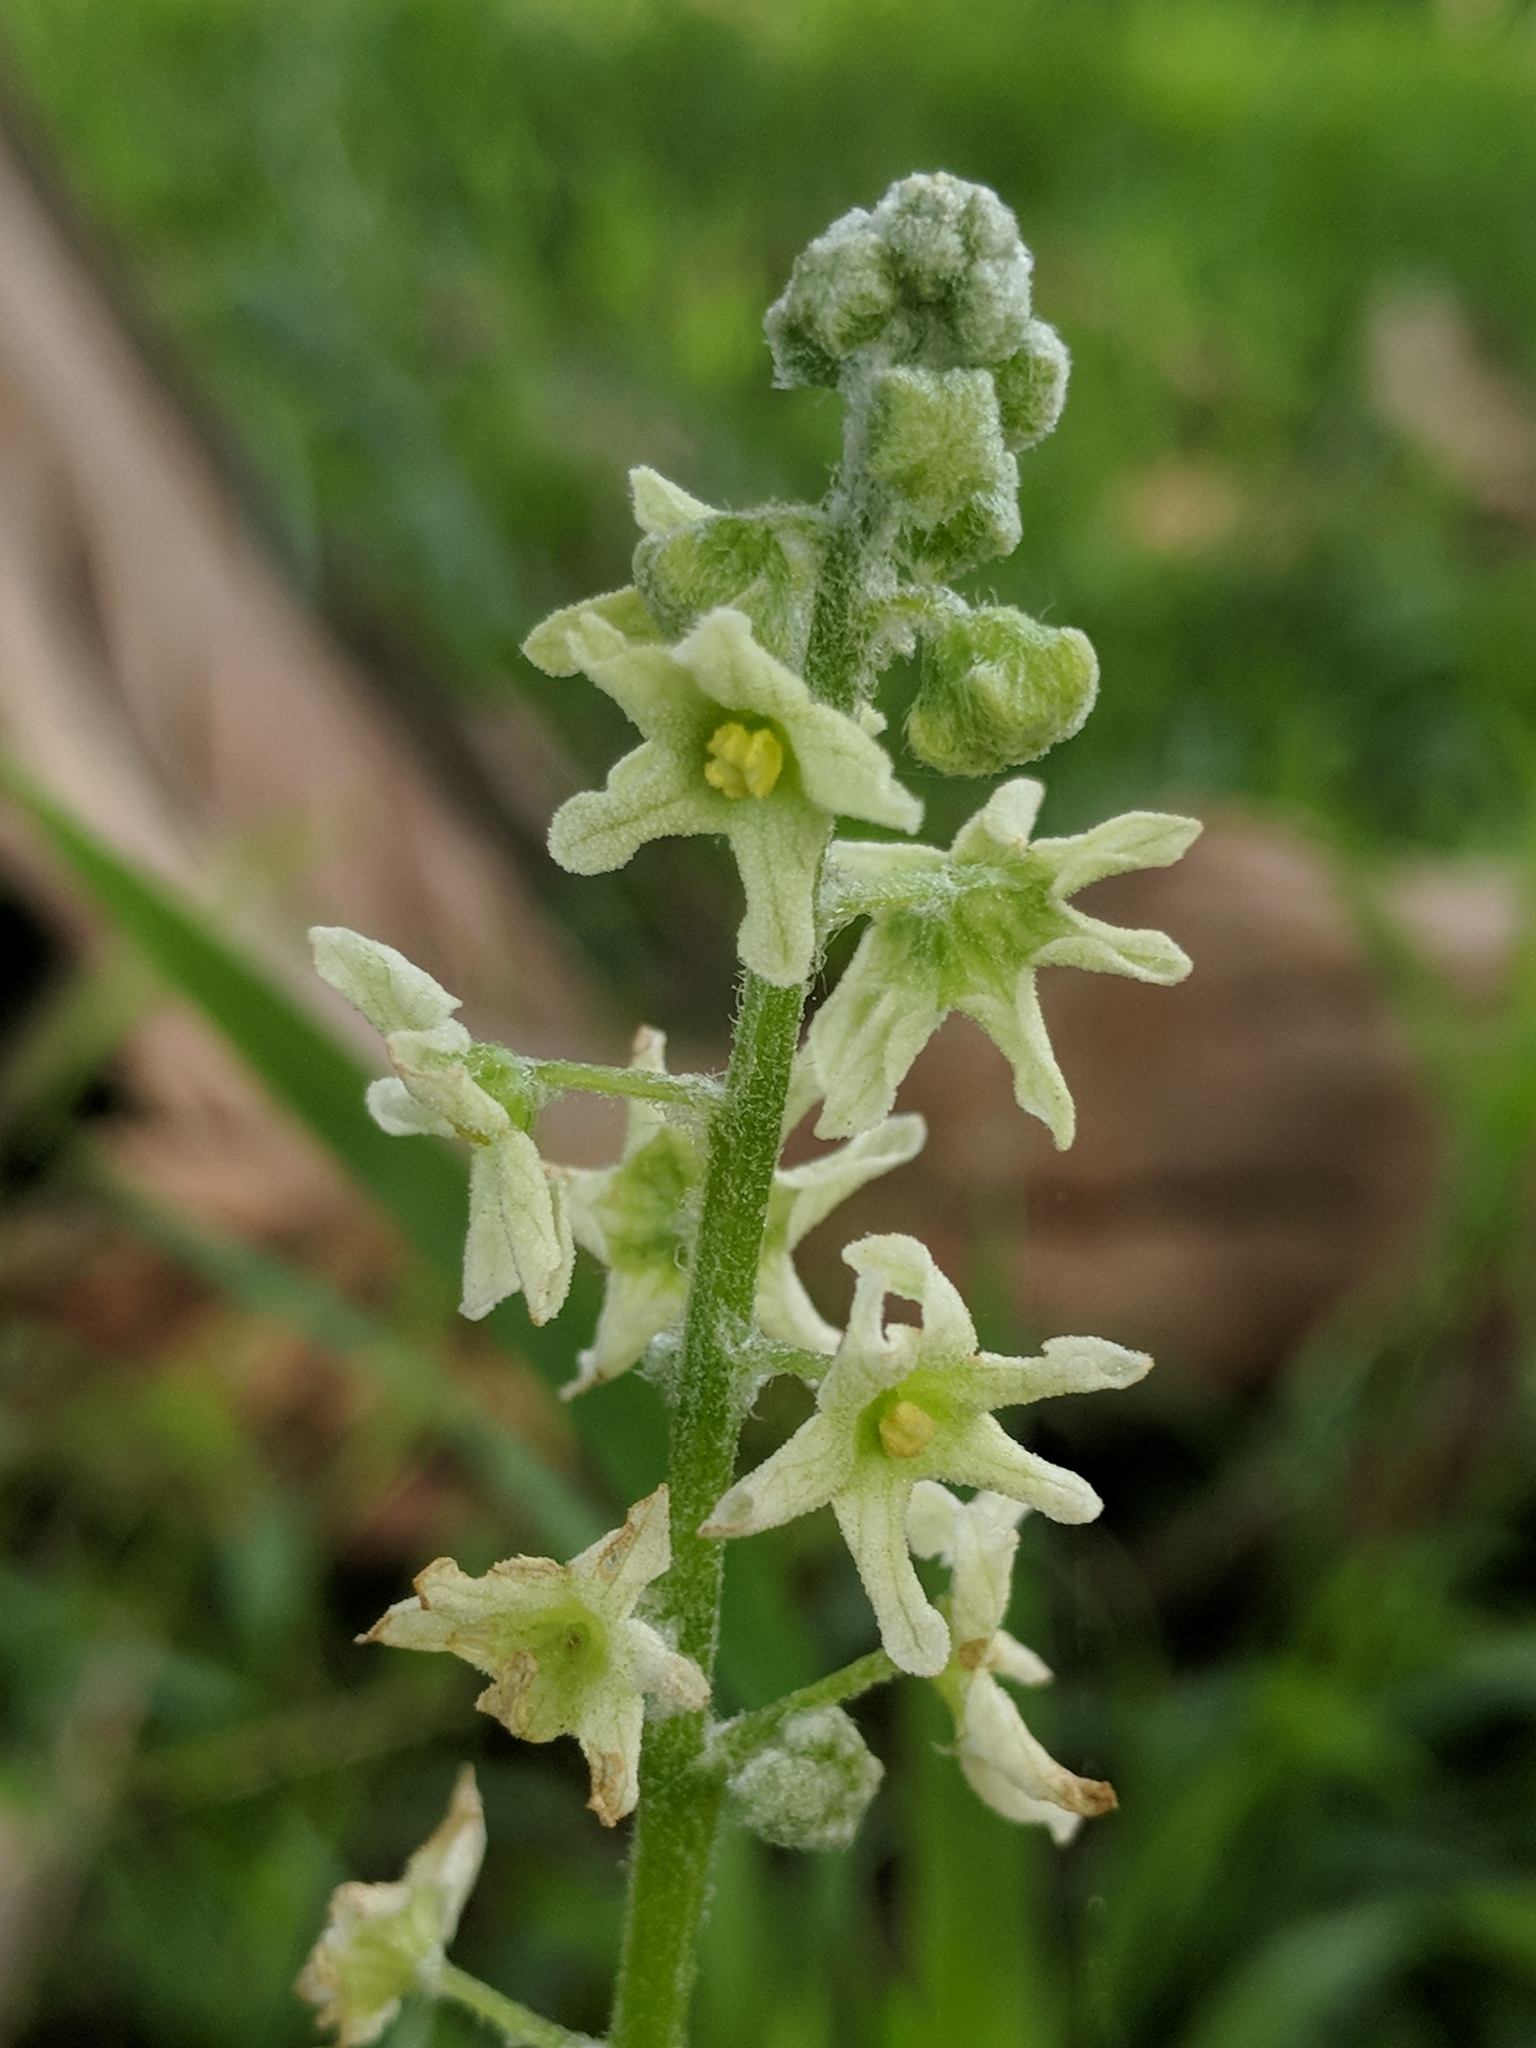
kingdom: Plantae
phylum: Tracheophyta
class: Magnoliopsida
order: Cucurbitales
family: Cucurbitaceae
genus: Marah
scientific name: Marah fabacea
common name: California manroot
